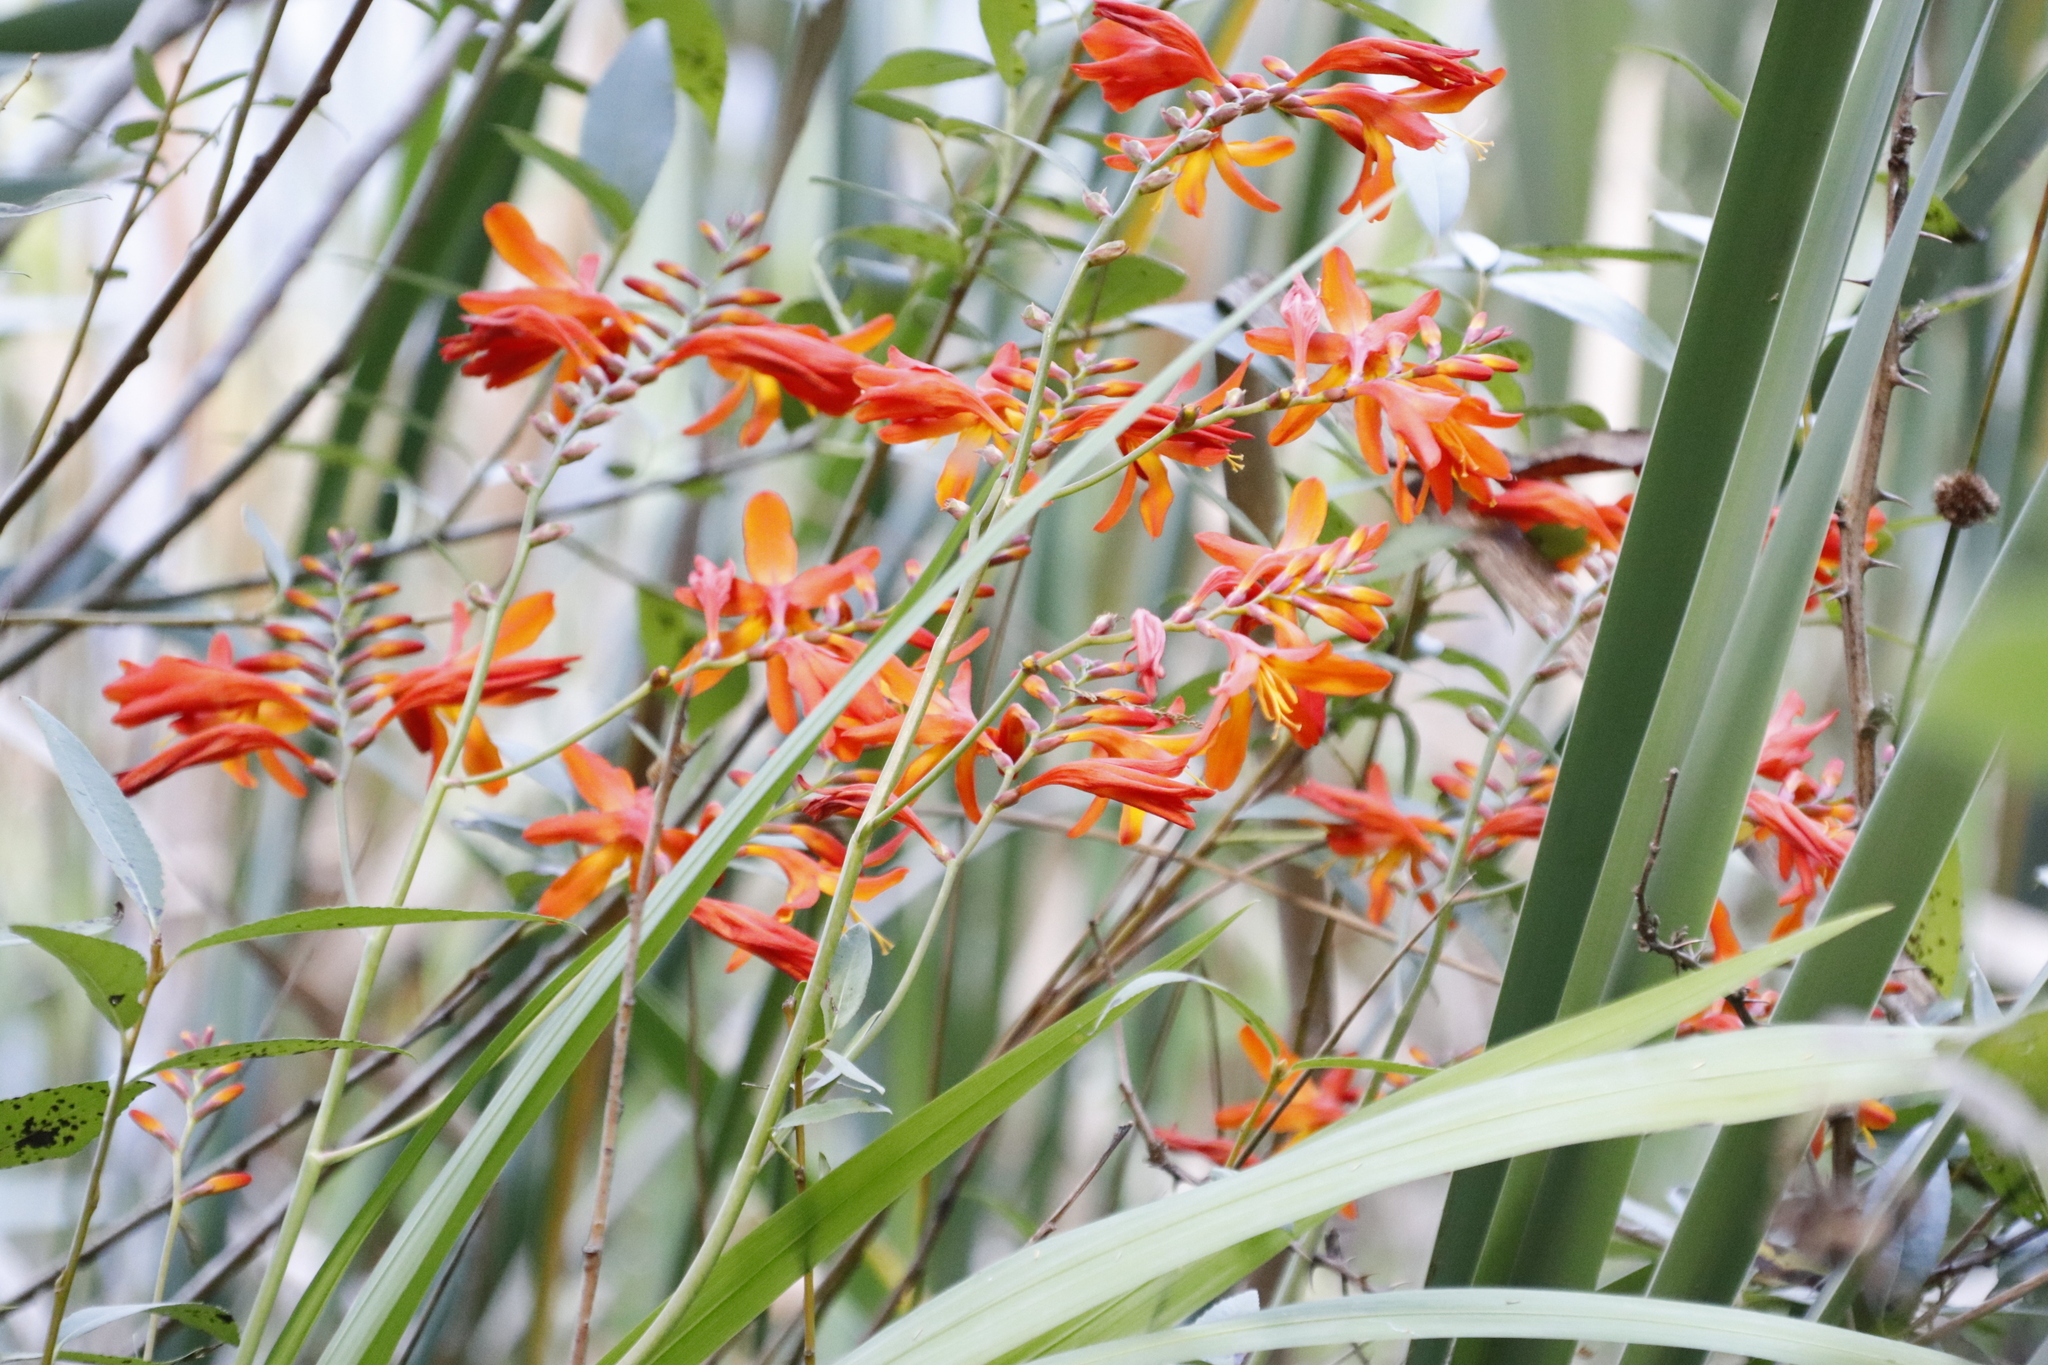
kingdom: Plantae
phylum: Tracheophyta
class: Liliopsida
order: Asparagales
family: Iridaceae
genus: Crocosmia
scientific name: Crocosmia crocosmiiflora
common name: Montbretia
